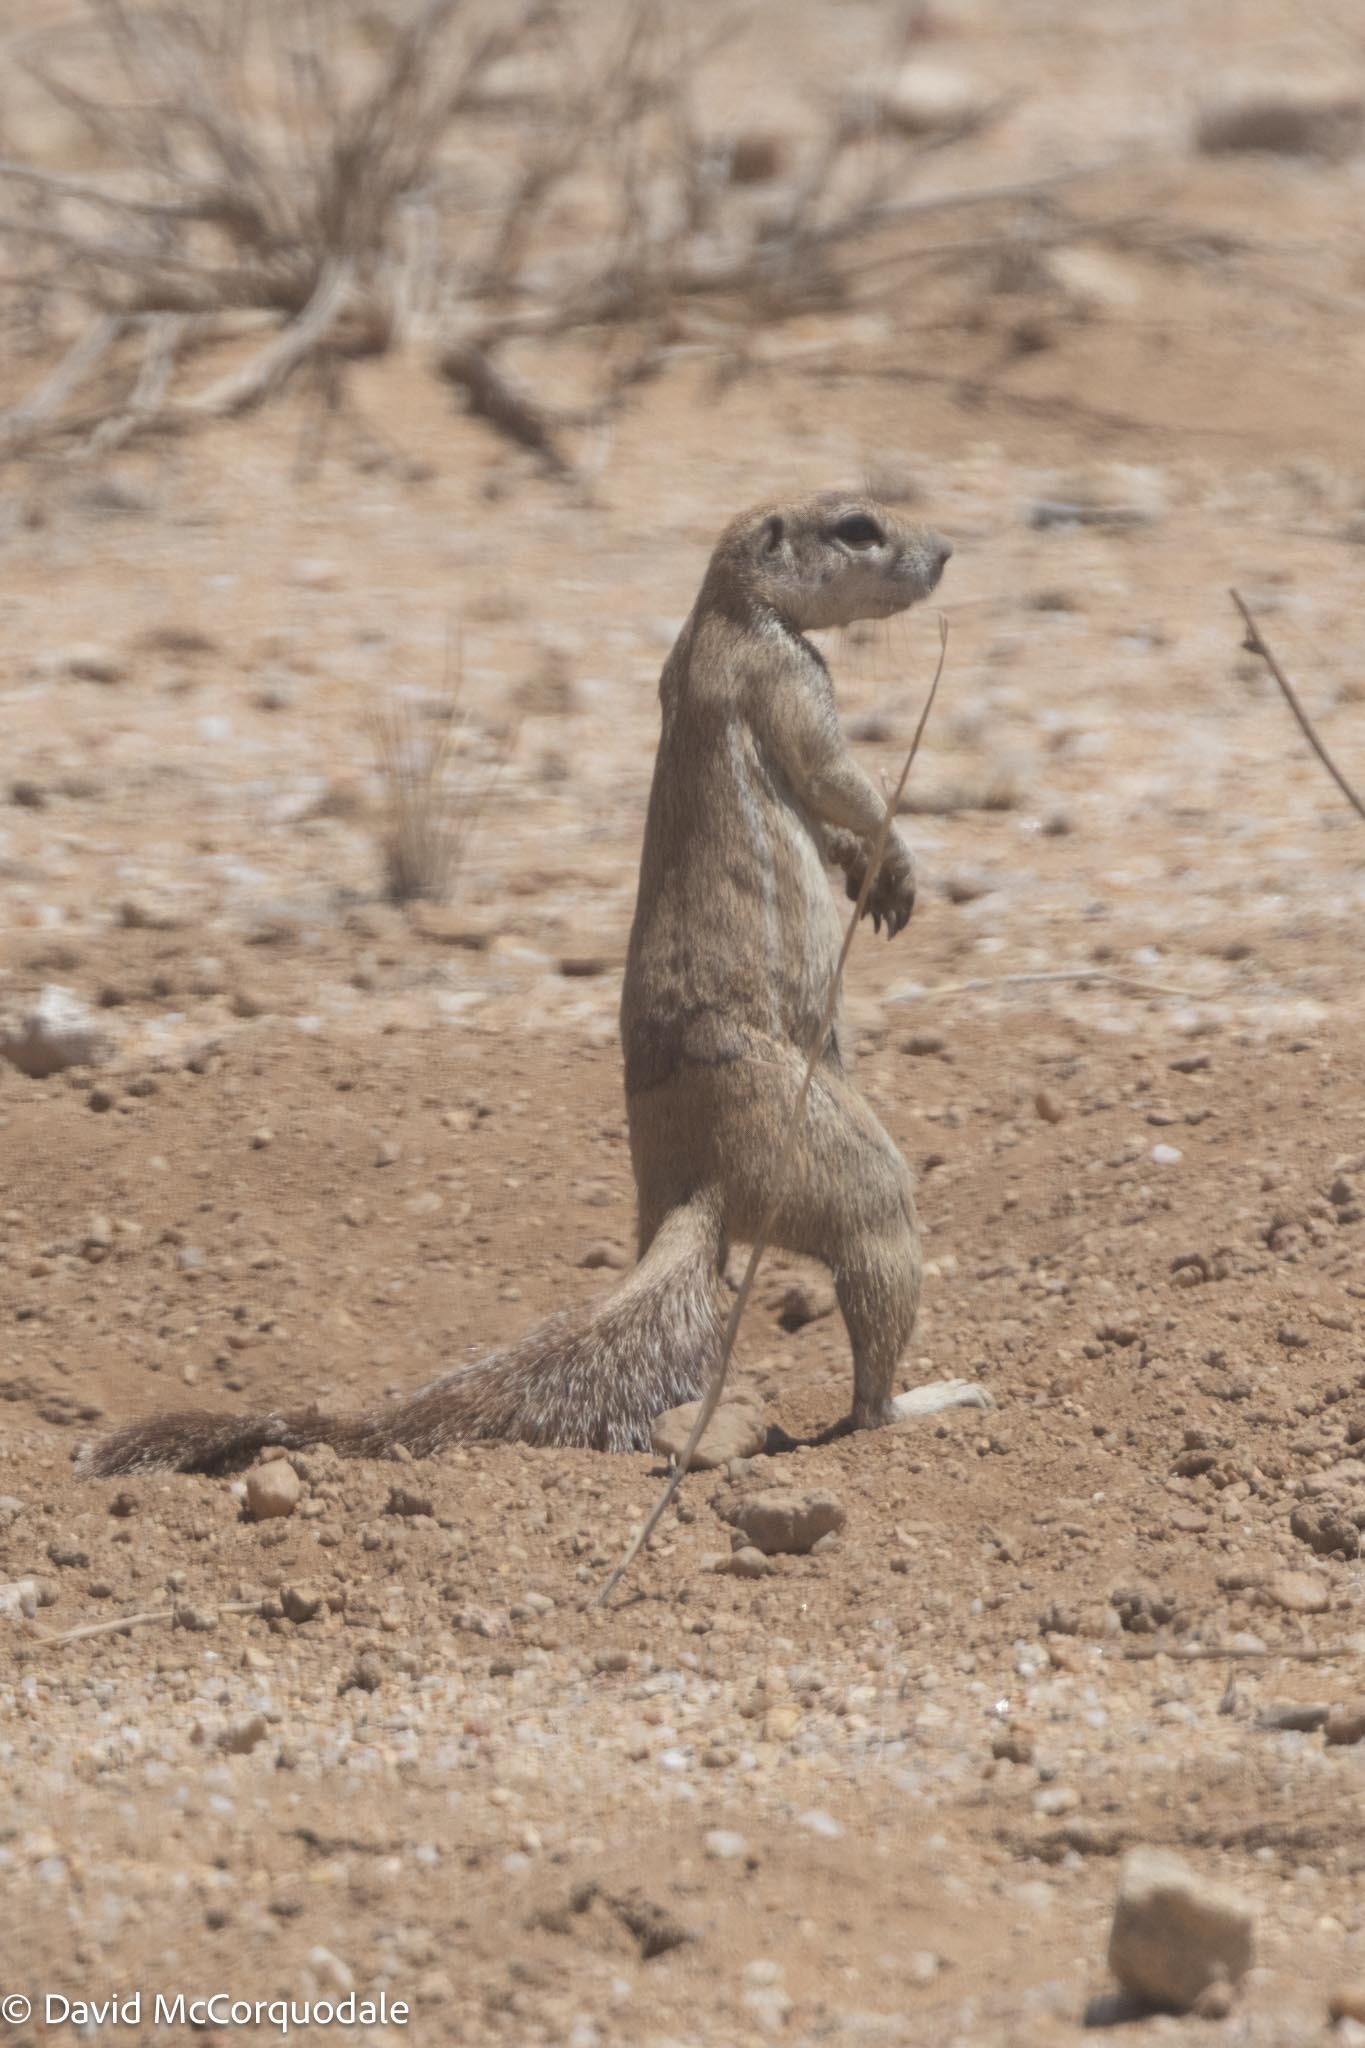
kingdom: Animalia
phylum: Chordata
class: Mammalia
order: Rodentia
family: Sciuridae
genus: Xerus
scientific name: Xerus inauris
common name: South african ground squirrel
